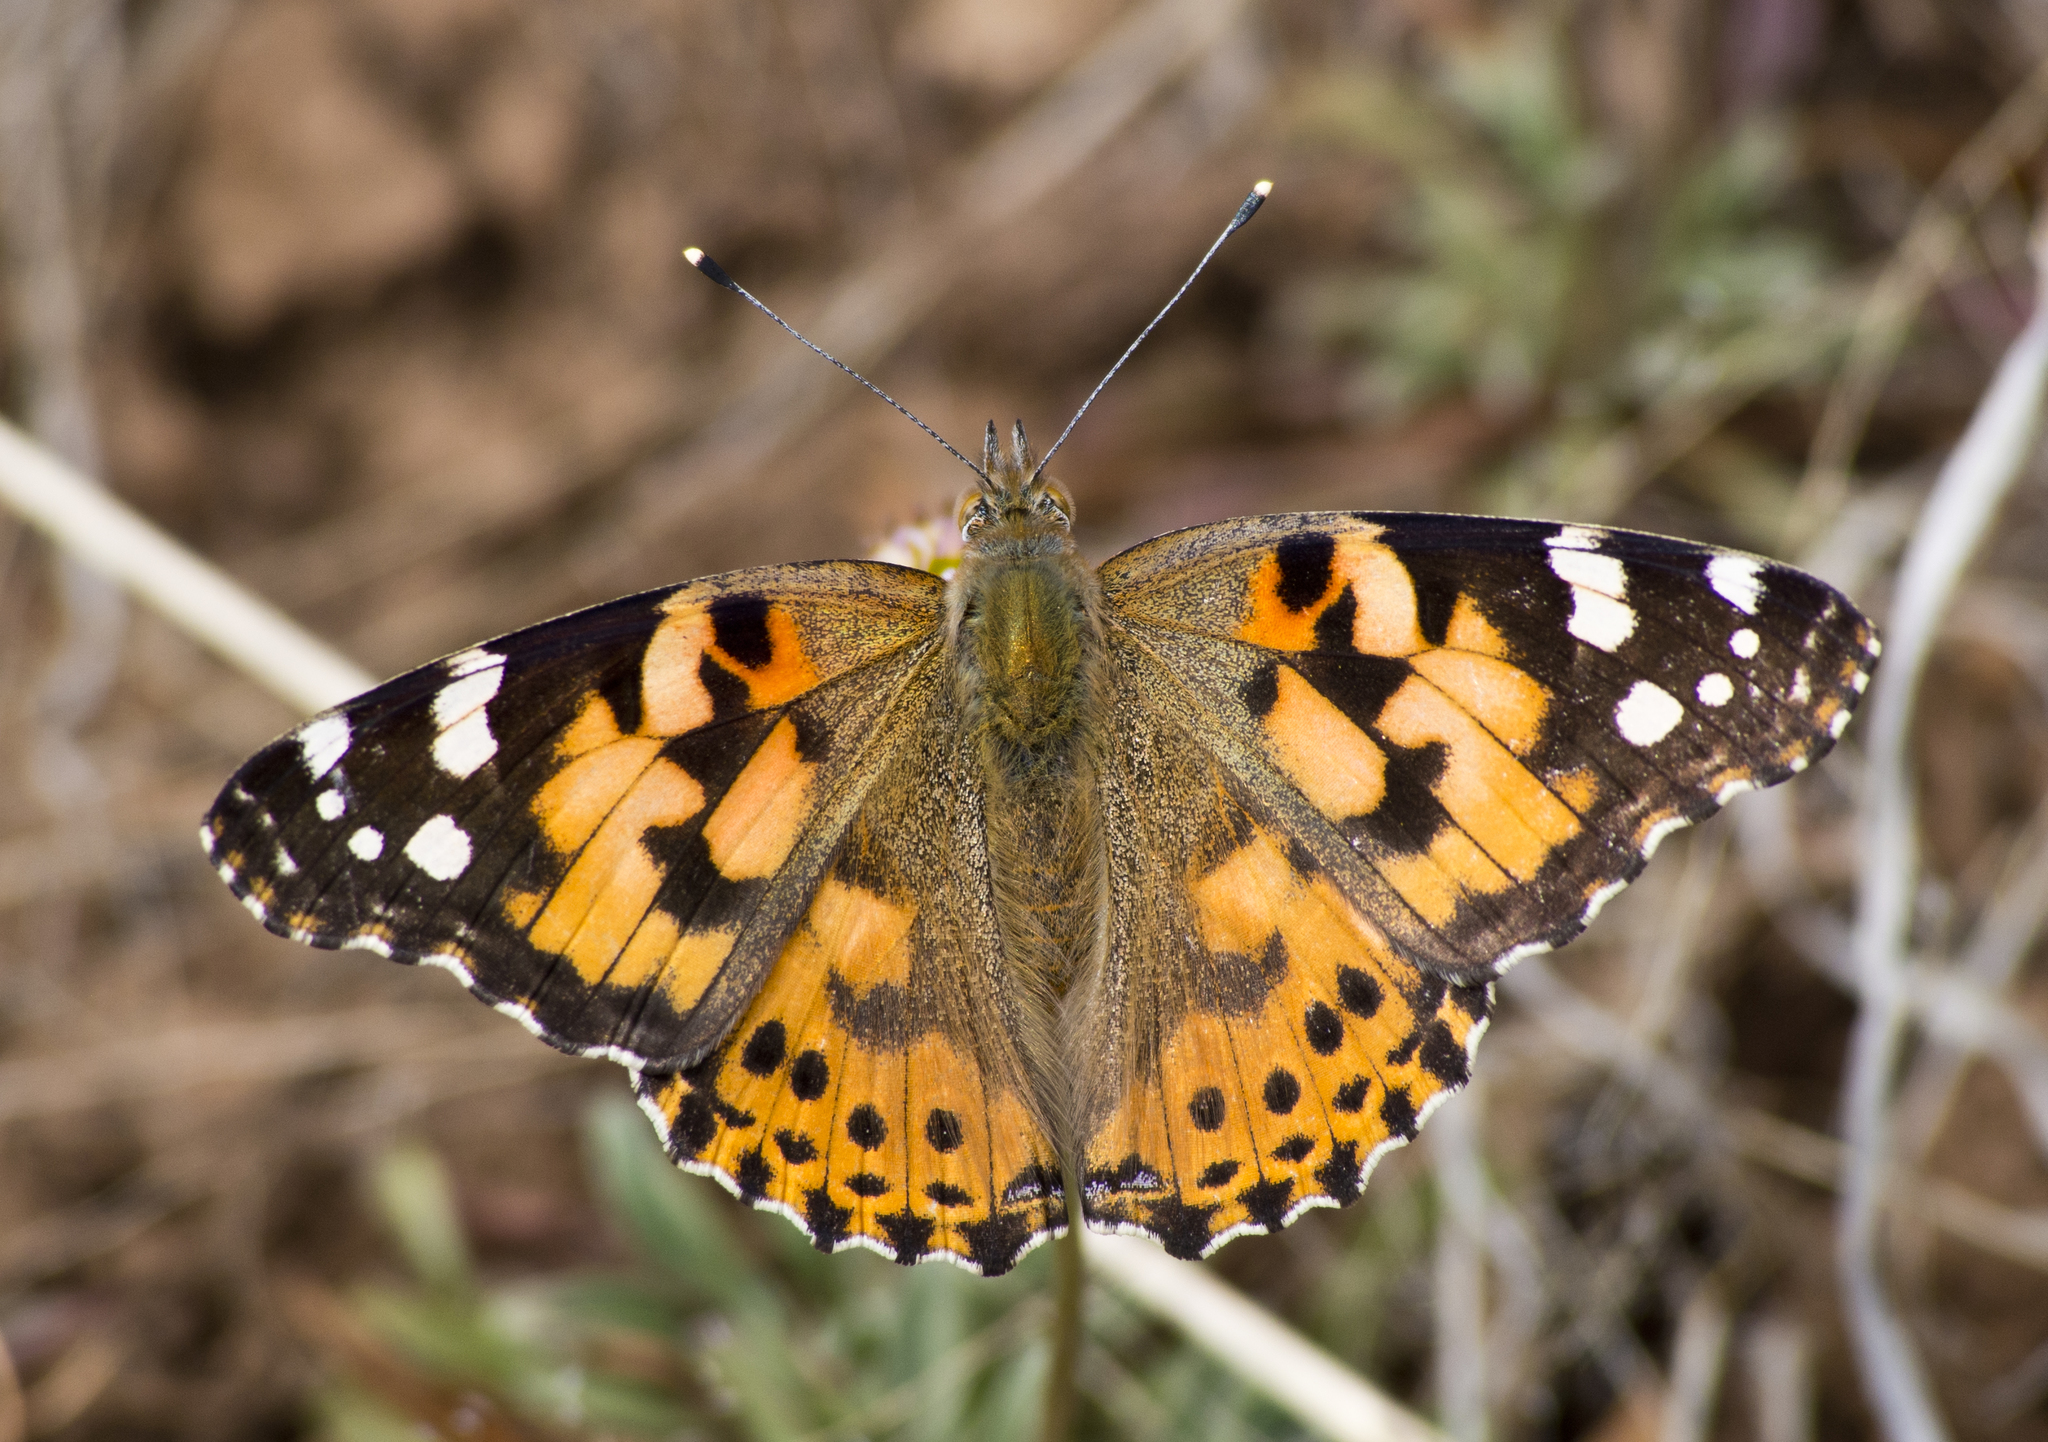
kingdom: Animalia
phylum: Arthropoda
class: Insecta
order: Lepidoptera
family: Nymphalidae
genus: Vanessa
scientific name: Vanessa cardui
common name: Painted lady
